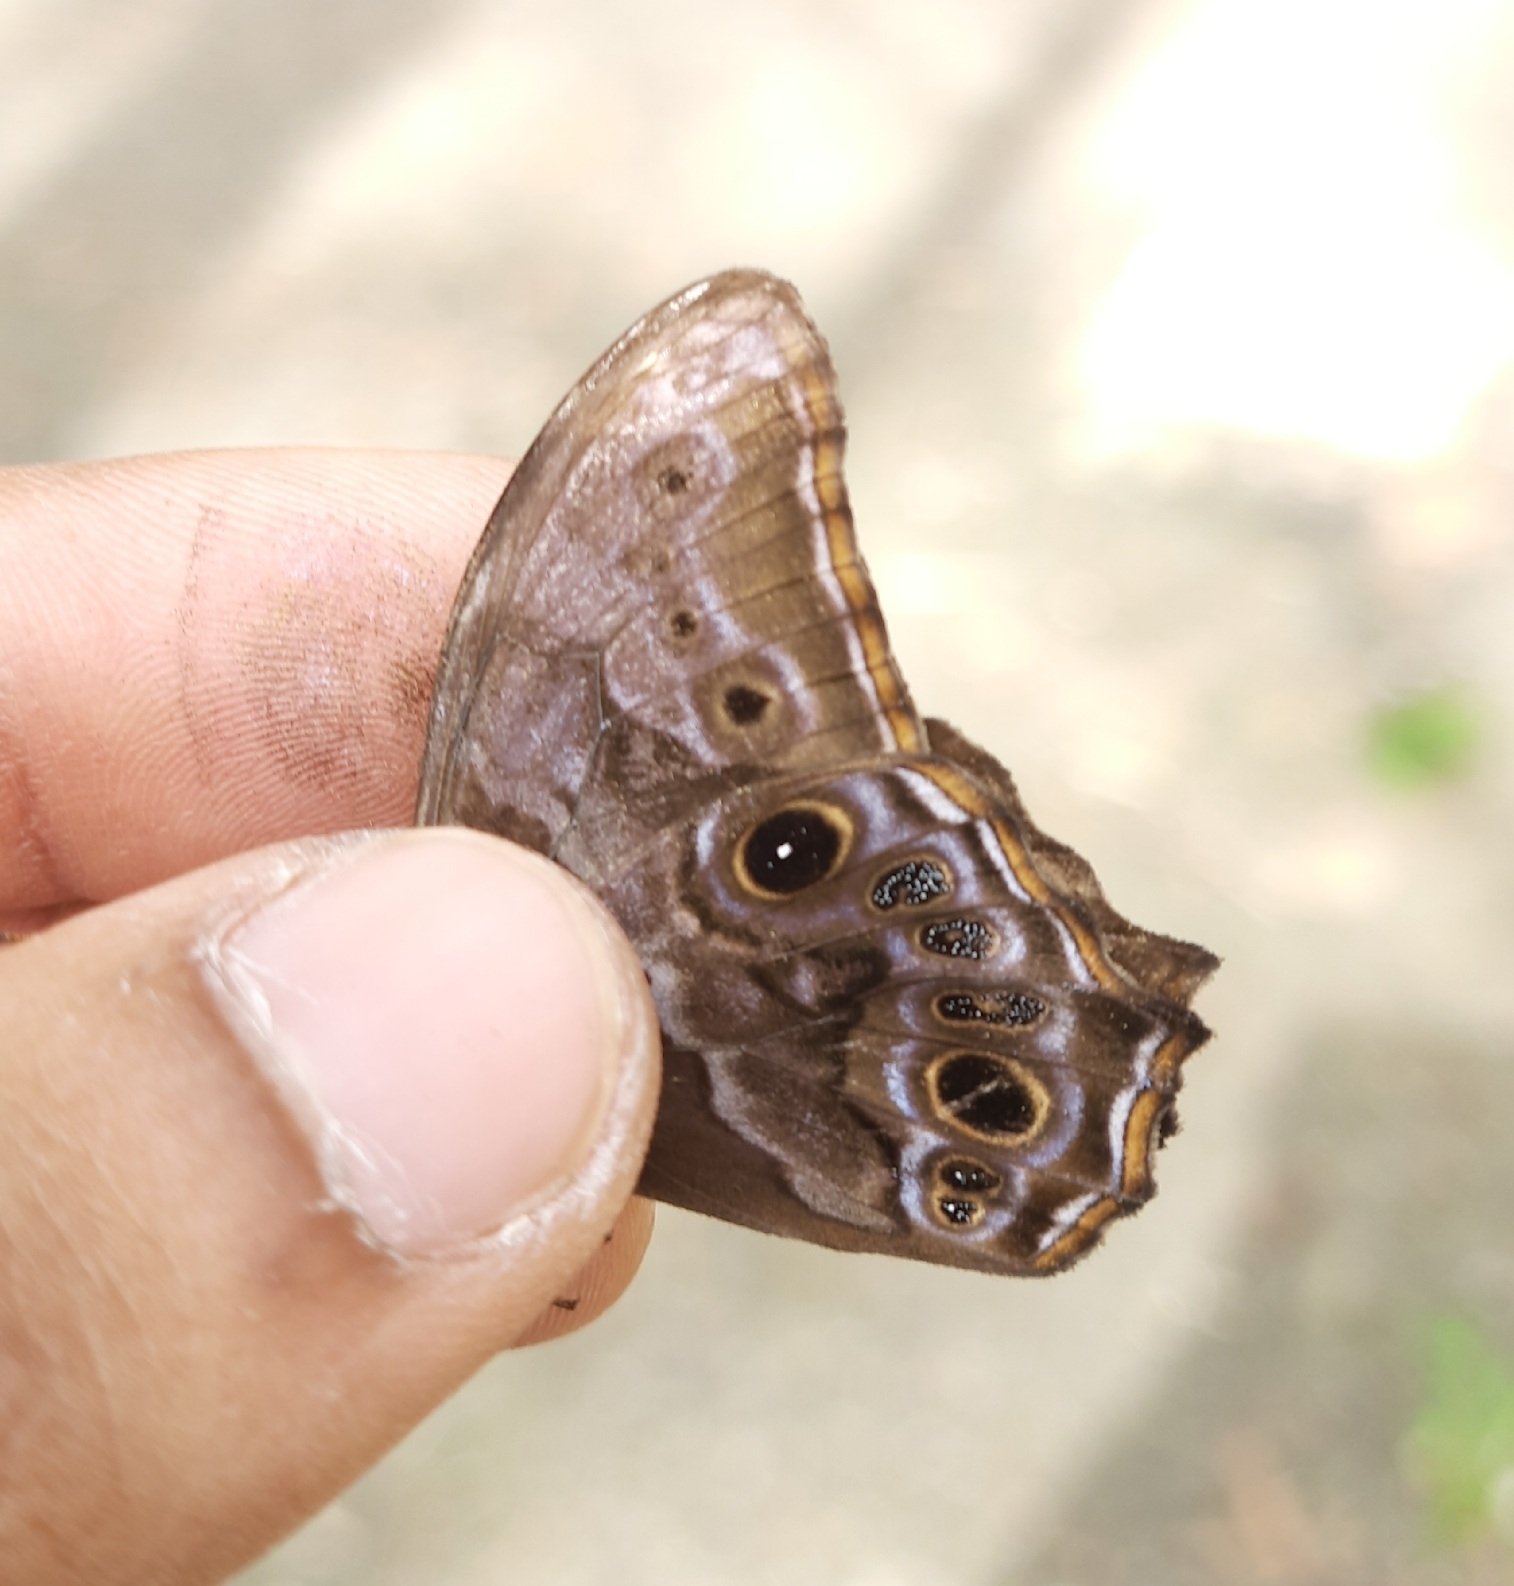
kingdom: Animalia
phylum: Arthropoda
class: Insecta
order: Lepidoptera
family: Nymphalidae
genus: Lethe
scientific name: Lethe drypetis
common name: Tamil treebrown
